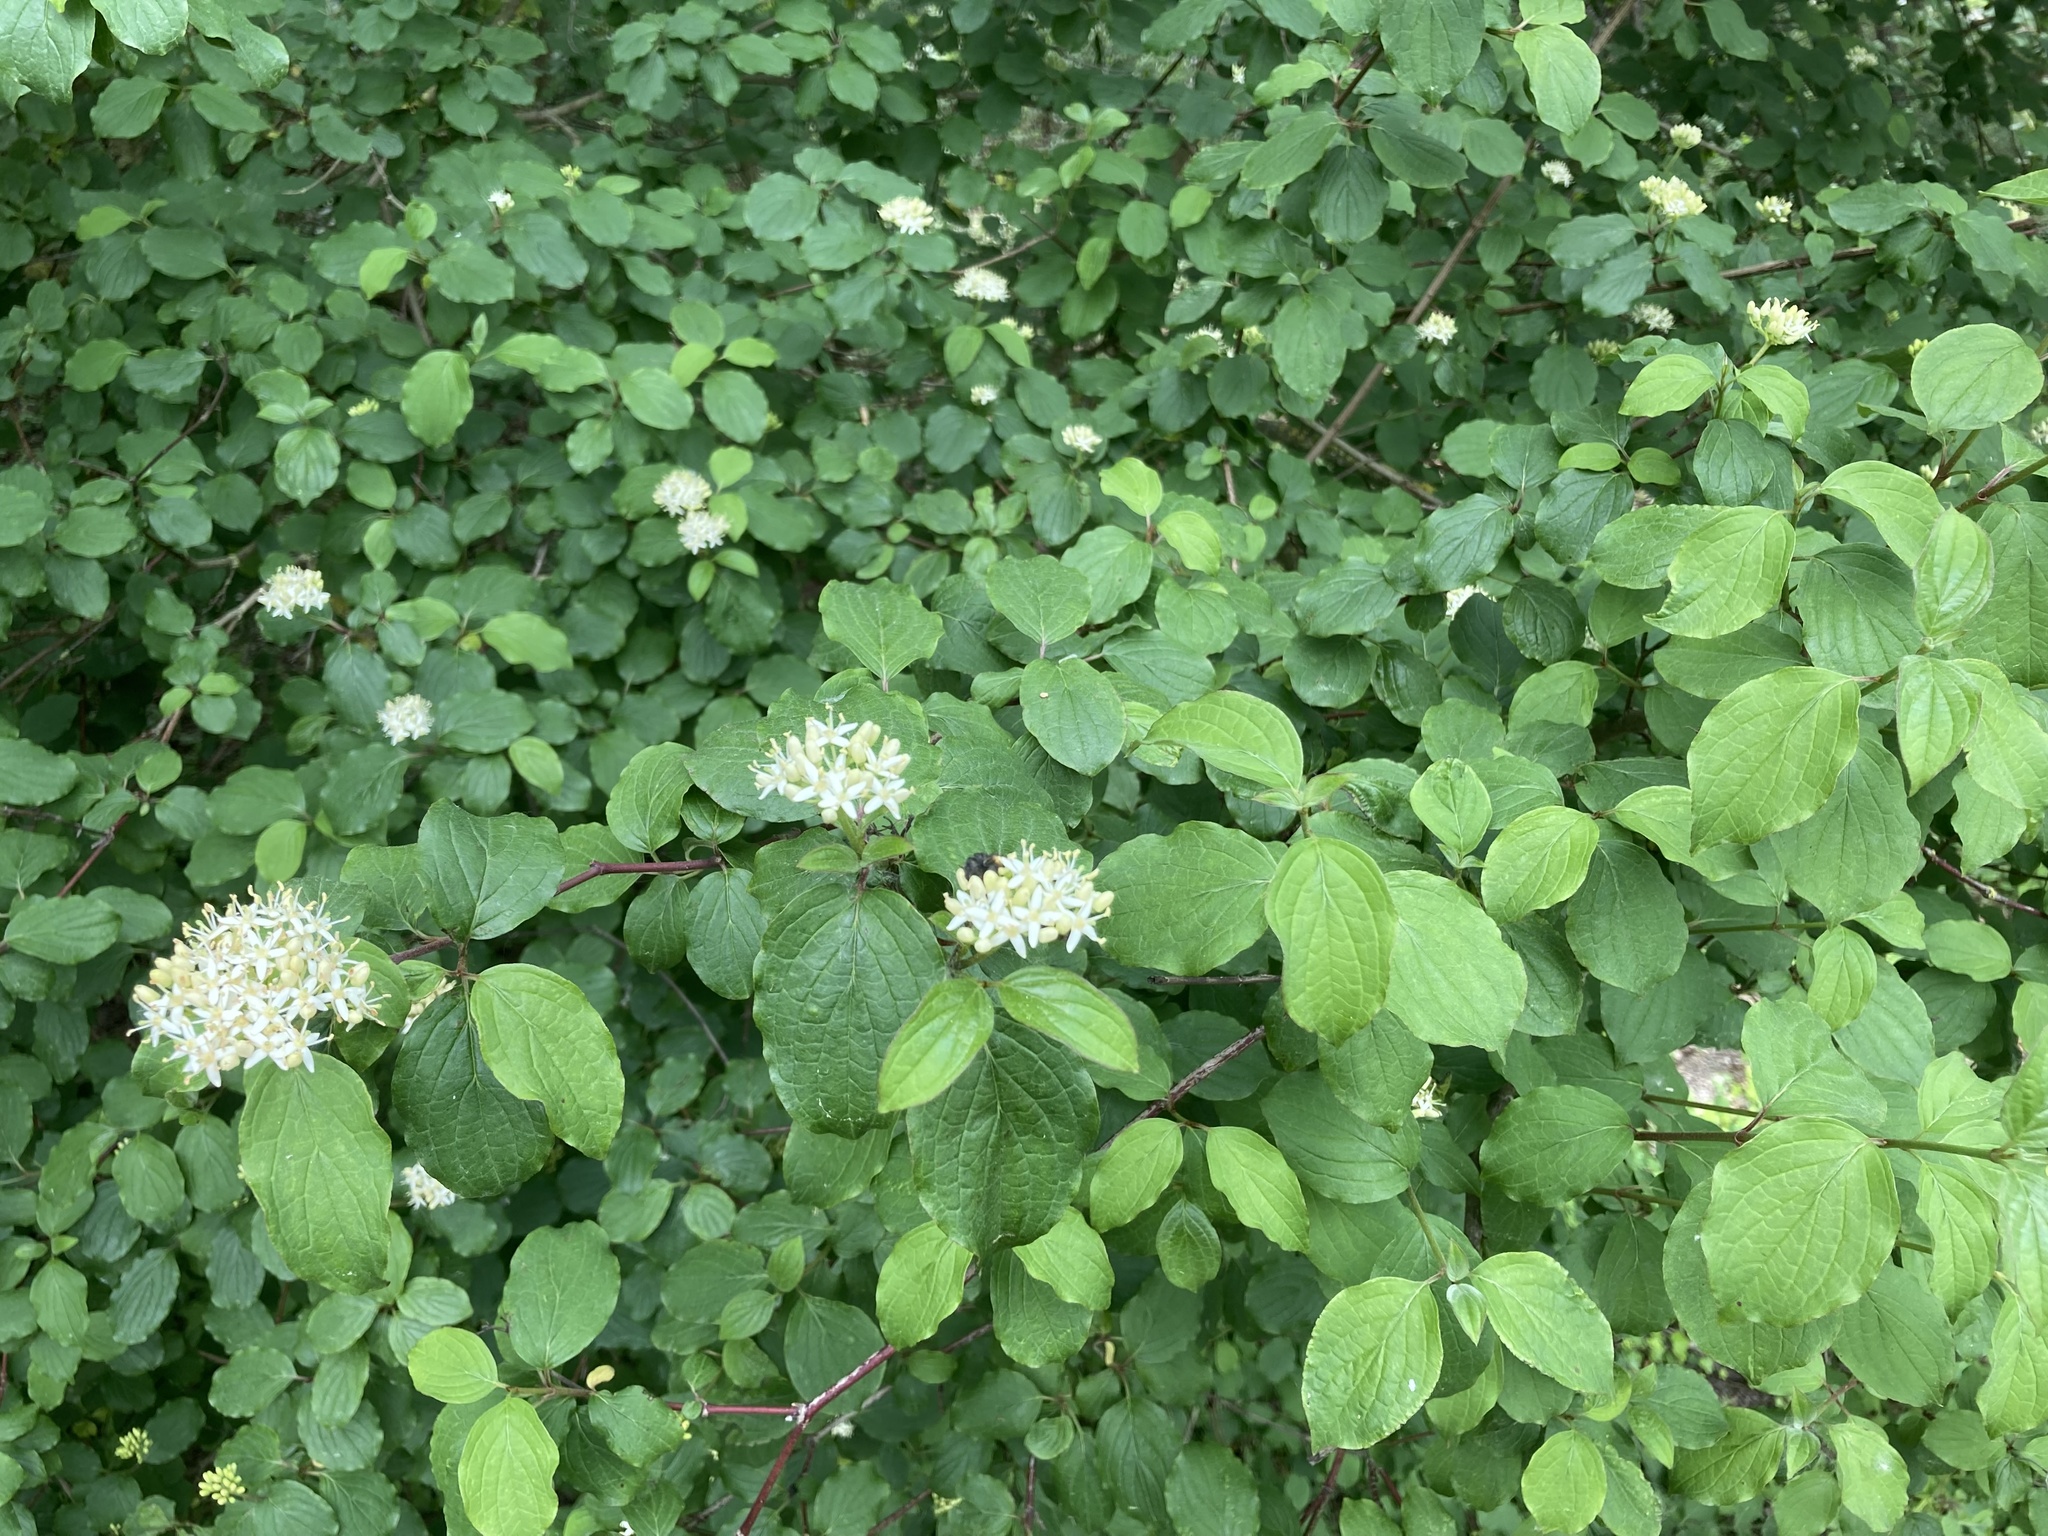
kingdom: Plantae
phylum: Tracheophyta
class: Magnoliopsida
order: Cornales
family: Cornaceae
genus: Cornus
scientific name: Cornus sanguinea
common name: Dogwood
